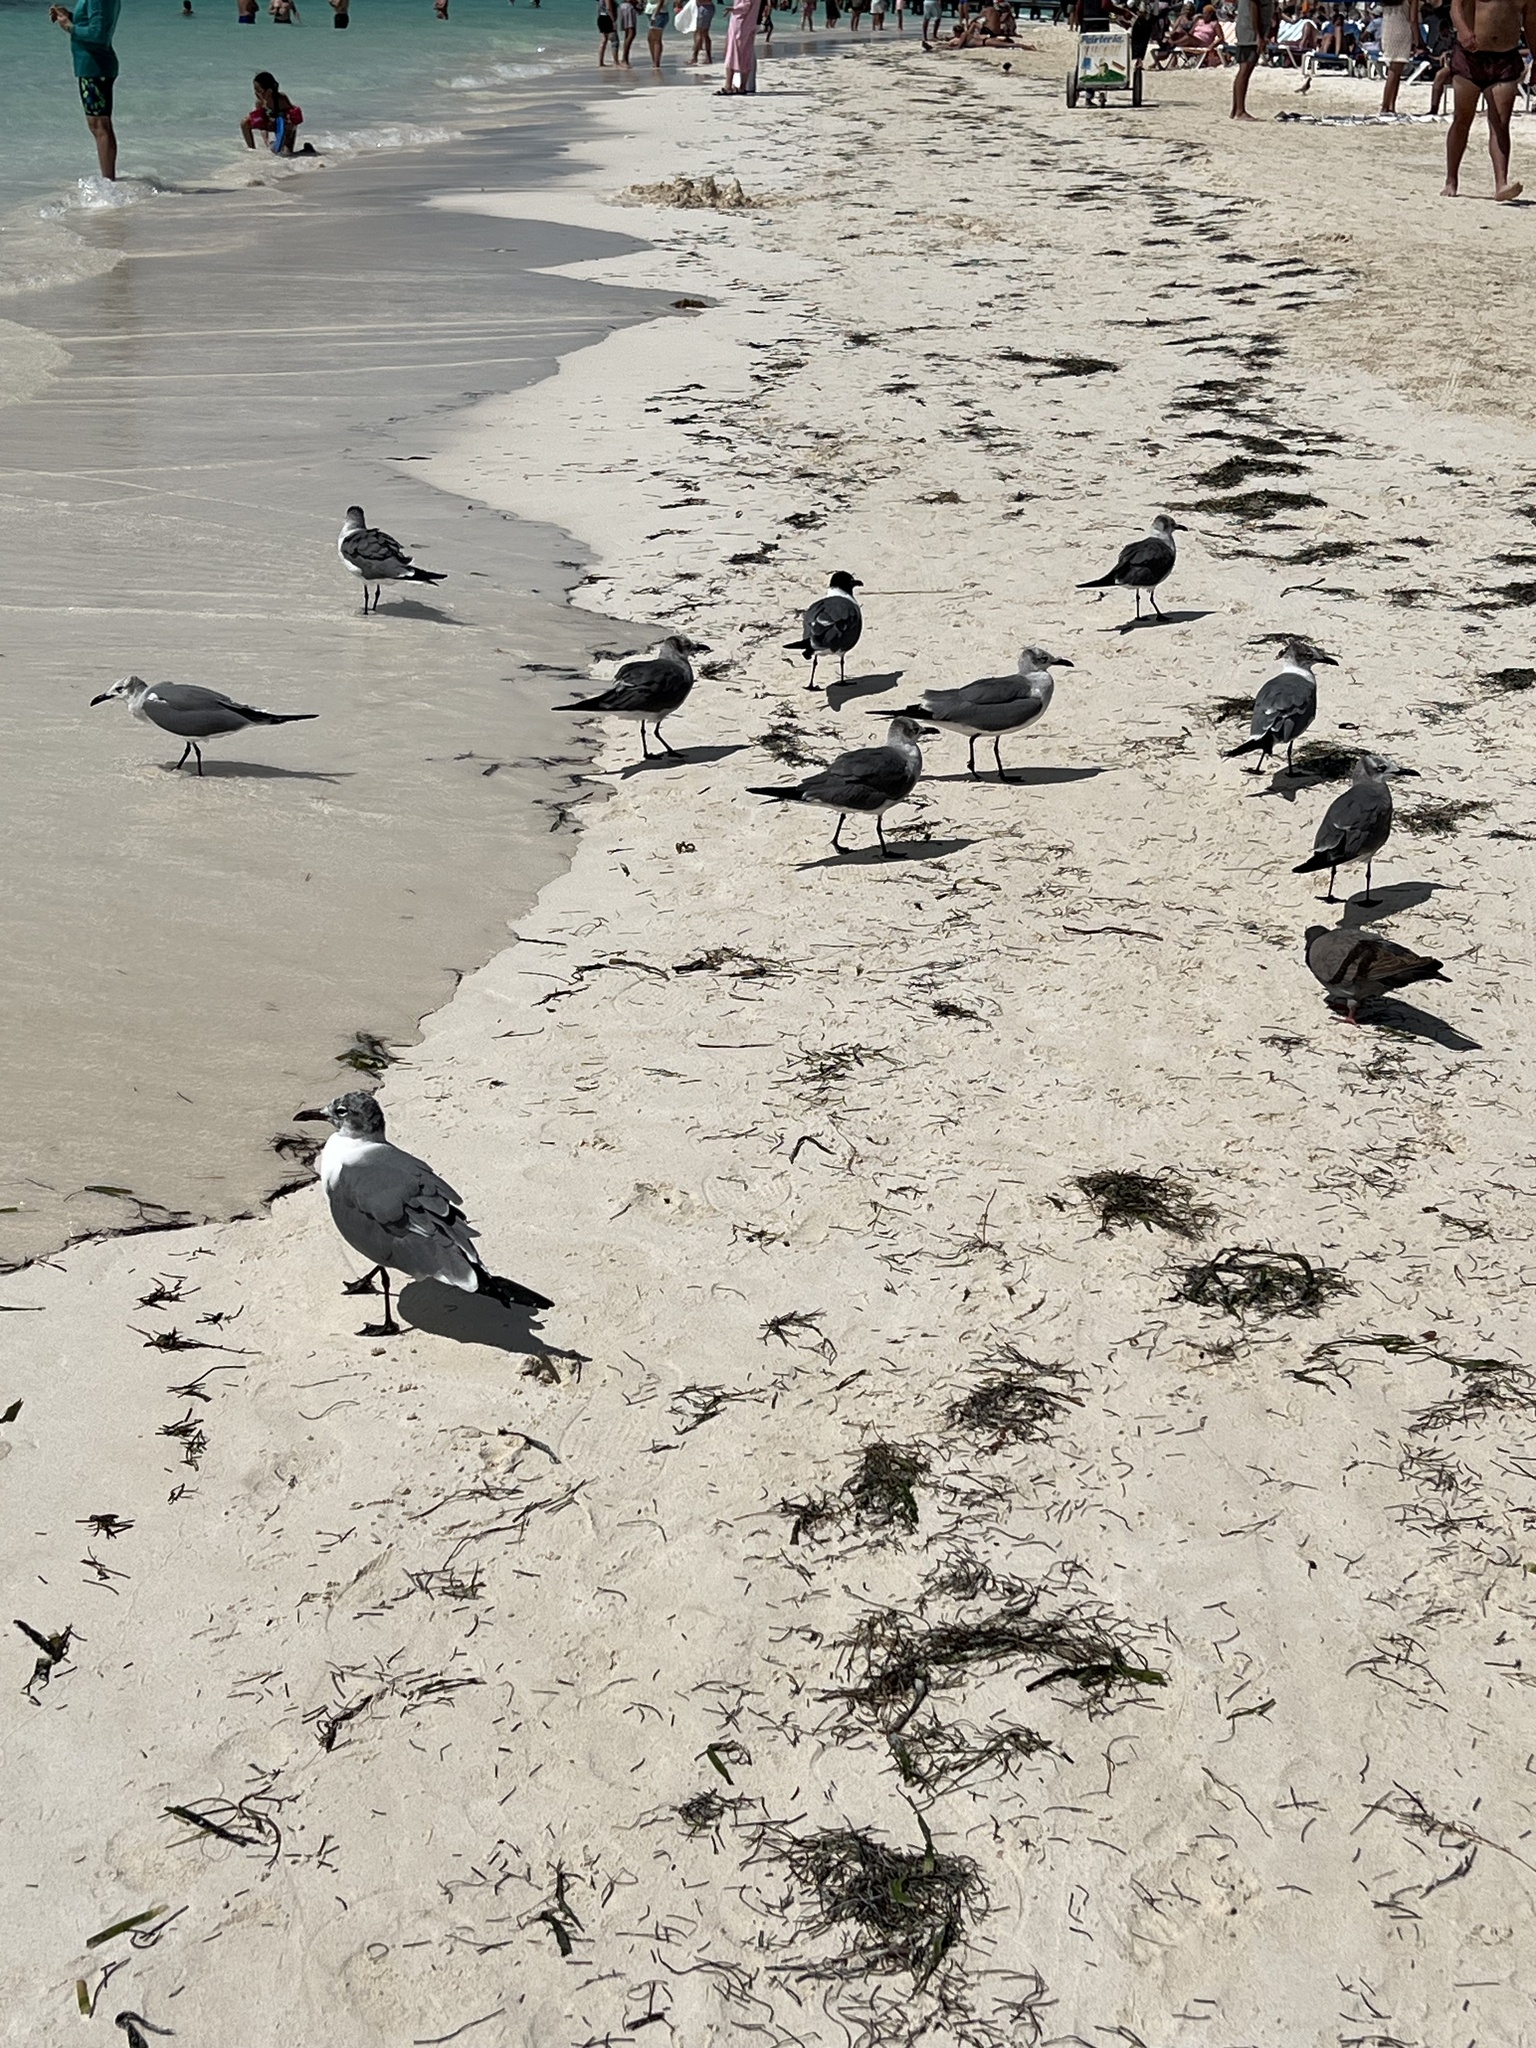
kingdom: Animalia
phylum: Chordata
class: Aves
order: Charadriiformes
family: Laridae
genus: Leucophaeus
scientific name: Leucophaeus atricilla
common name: Laughing gull
